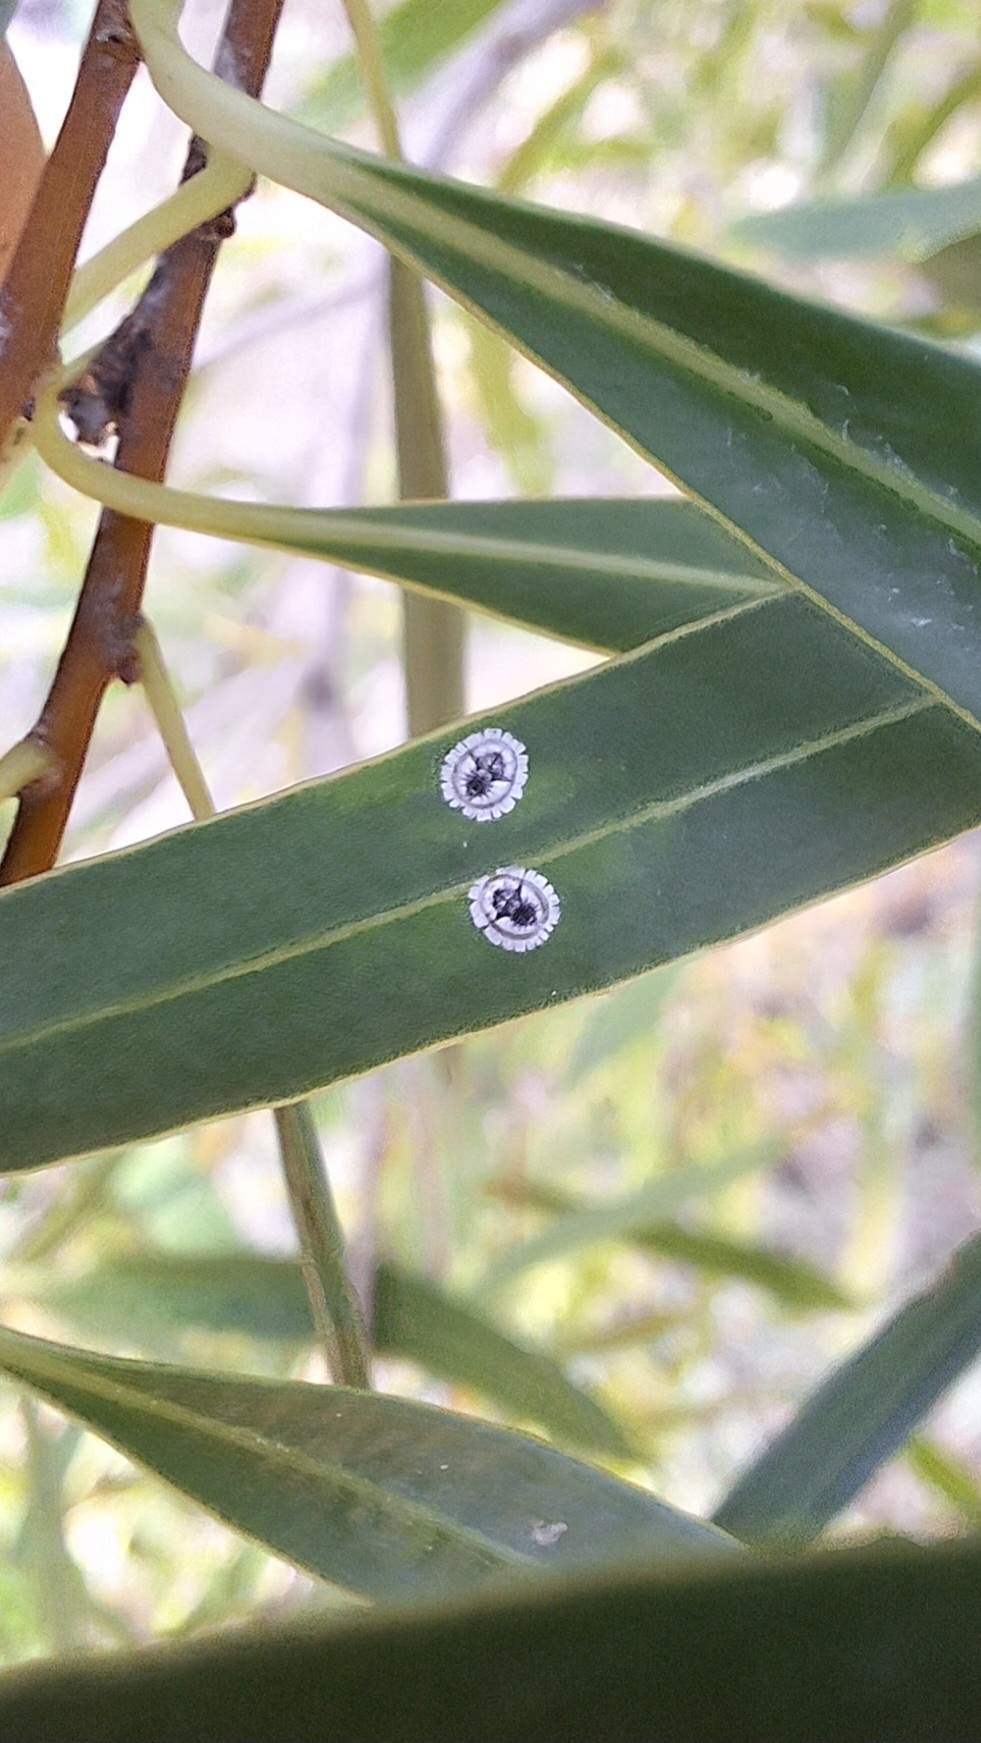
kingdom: Animalia
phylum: Arthropoda
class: Insecta
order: Hemiptera
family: Aleyrodidae
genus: Dumbletoniella
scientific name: Dumbletoniella pittospori
